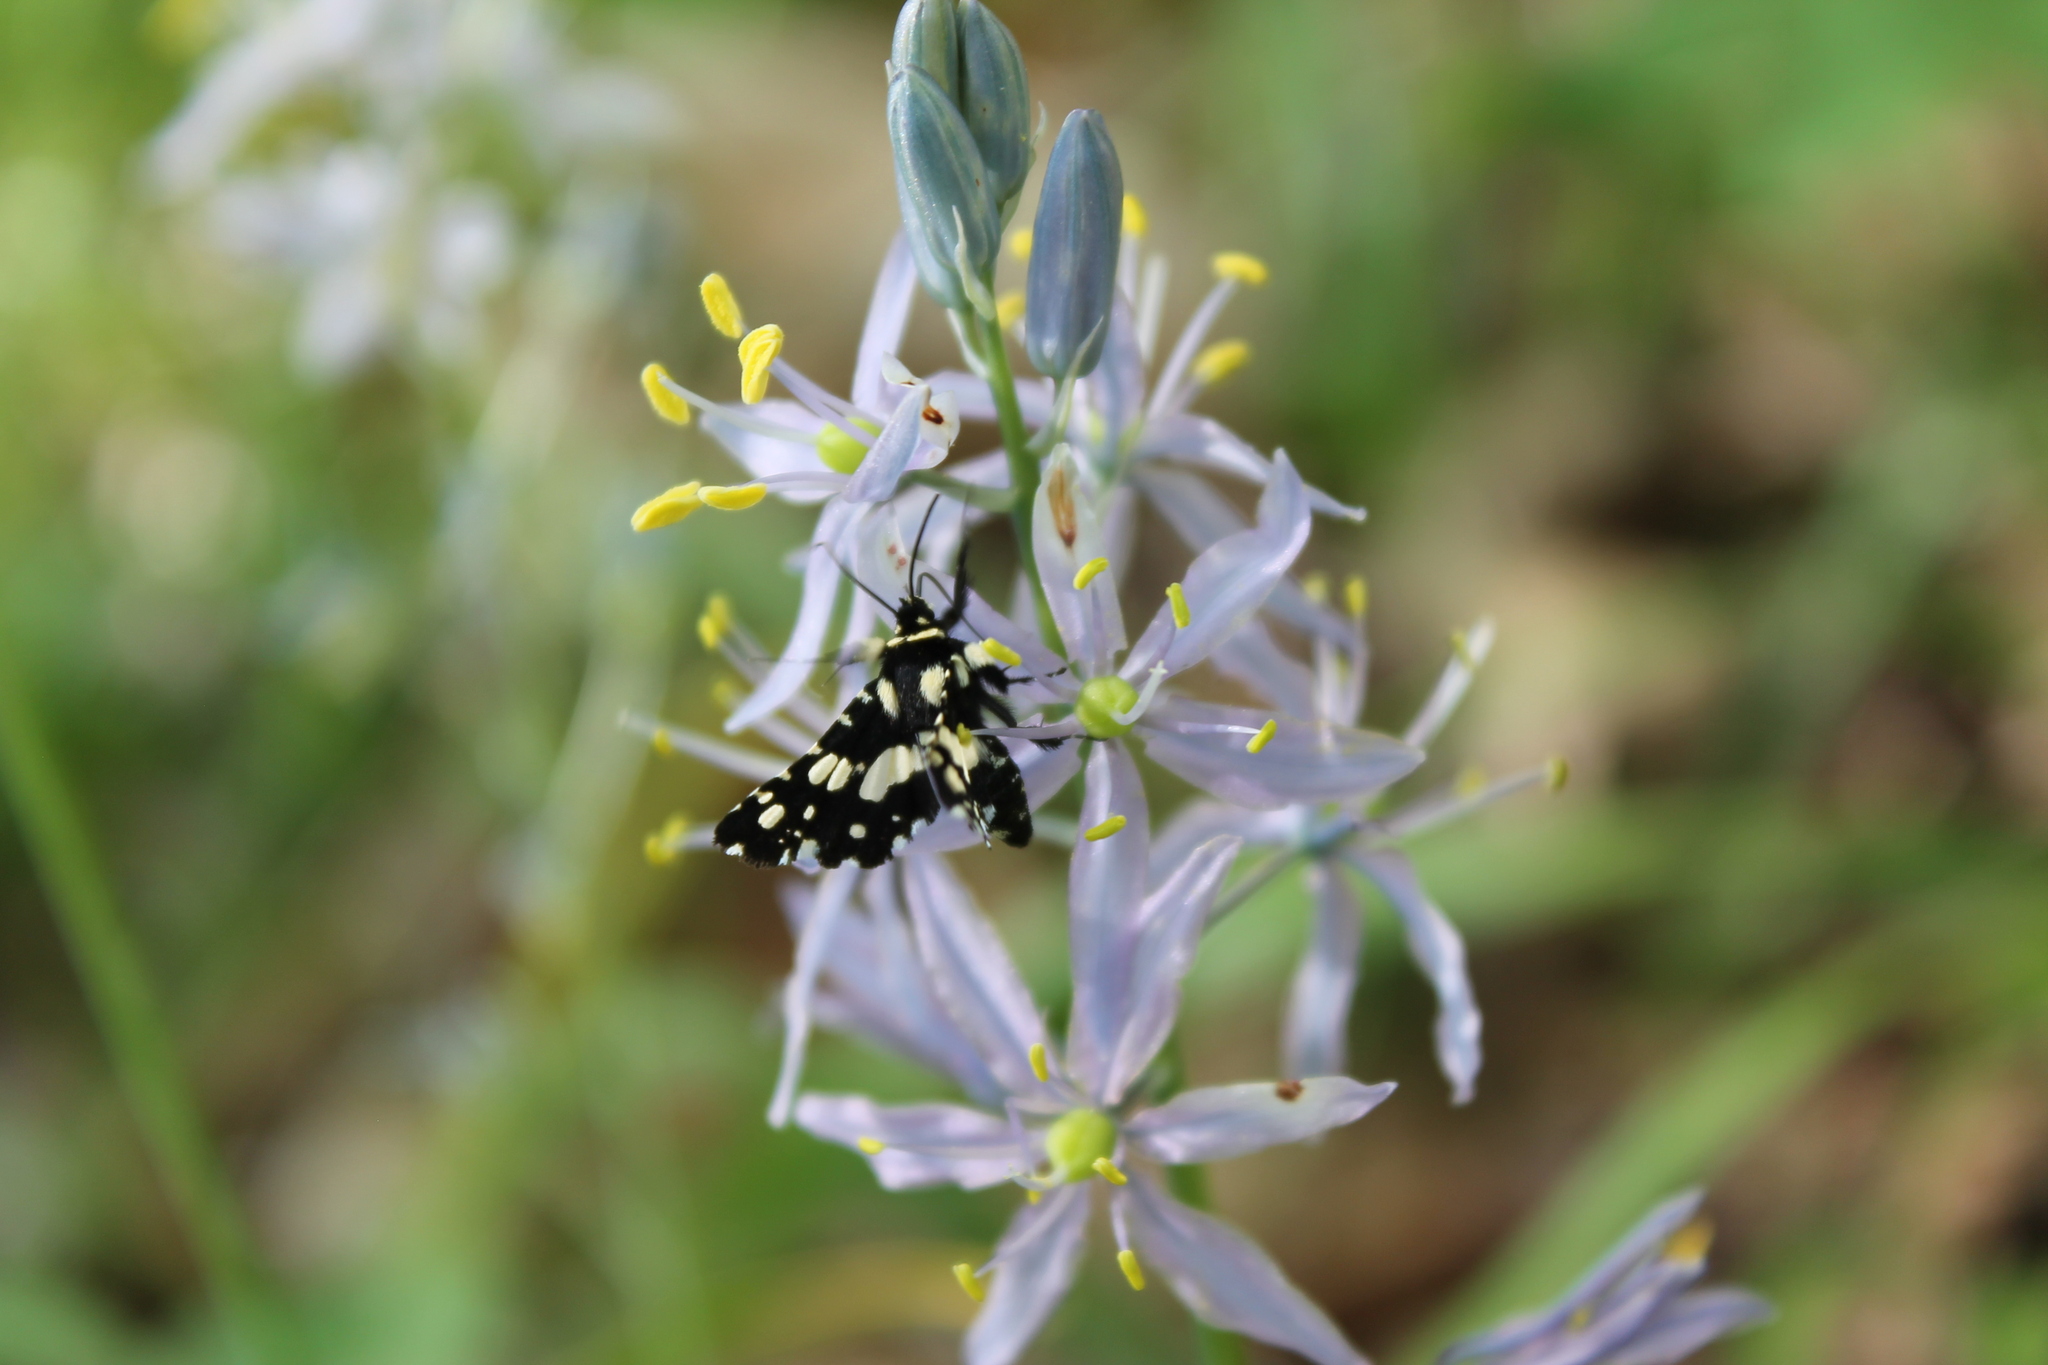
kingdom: Animalia
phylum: Arthropoda
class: Insecta
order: Lepidoptera
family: Thyrididae
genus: Pseudothyris
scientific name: Pseudothyris sepulchralis
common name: Mournful thyris moth
